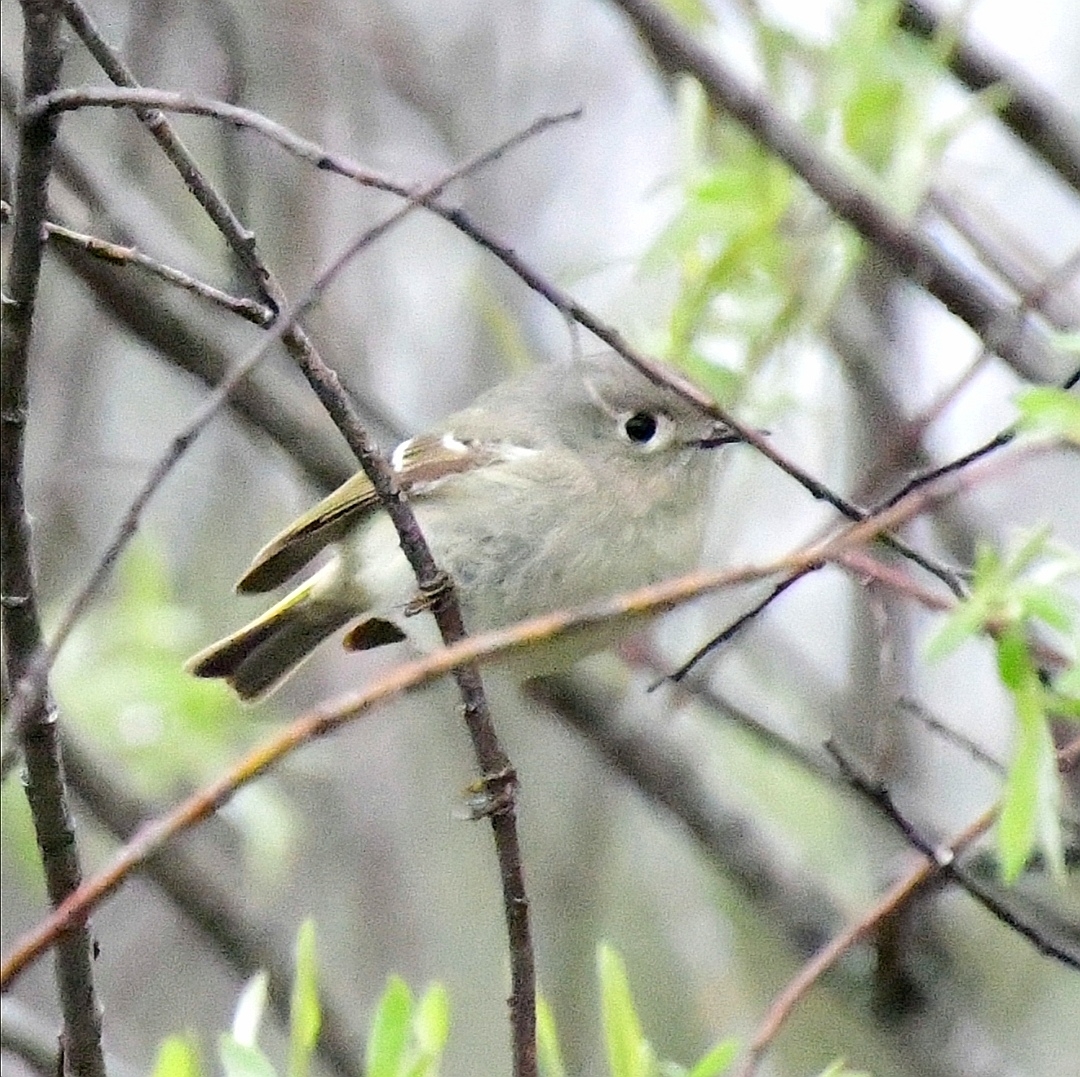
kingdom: Animalia
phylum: Chordata
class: Aves
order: Passeriformes
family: Regulidae
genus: Regulus
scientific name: Regulus calendula
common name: Ruby-crowned kinglet
